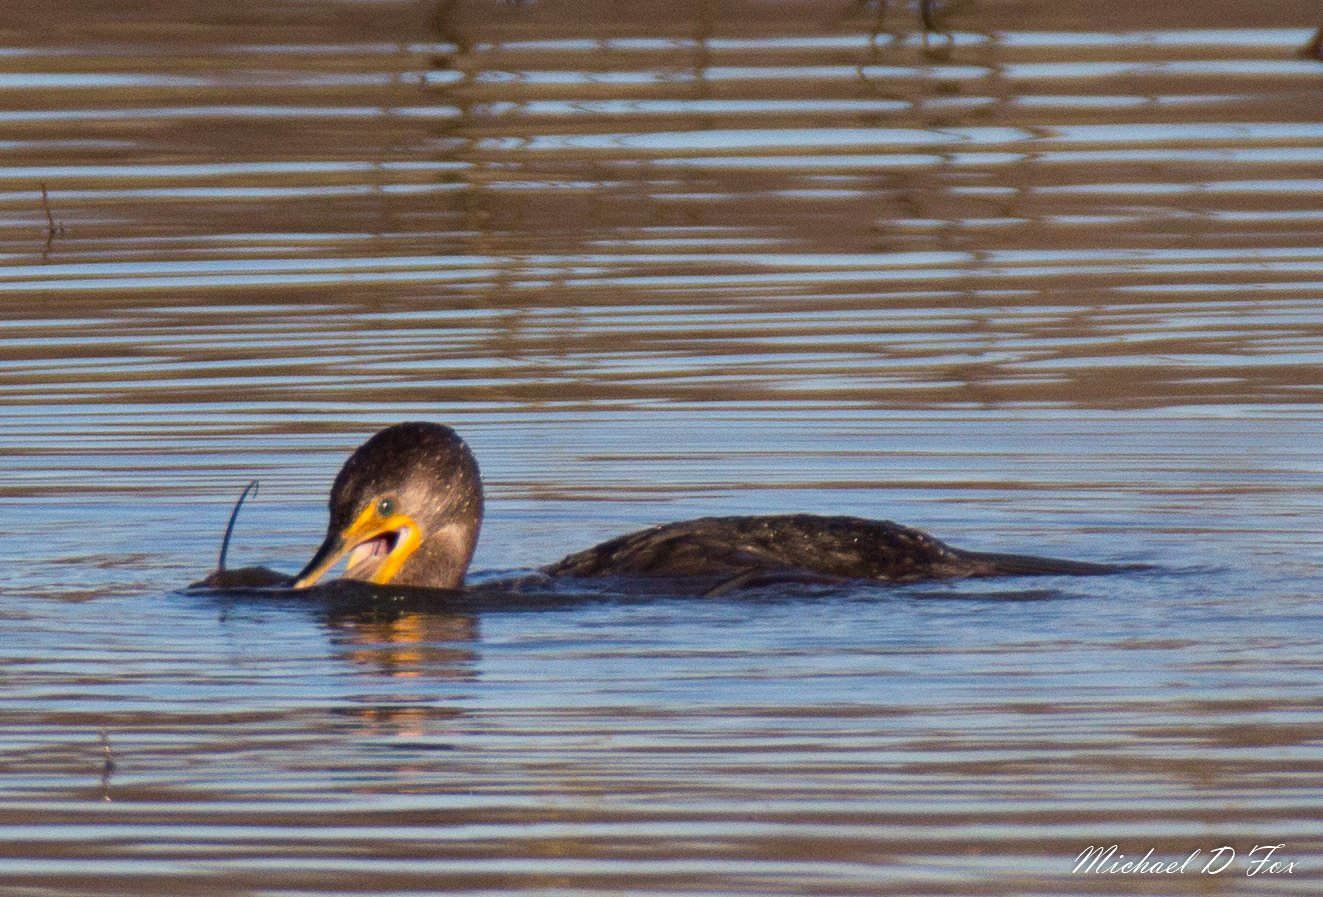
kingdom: Animalia
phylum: Chordata
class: Aves
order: Suliformes
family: Phalacrocoracidae
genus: Phalacrocorax
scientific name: Phalacrocorax auritus
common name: Double-crested cormorant
